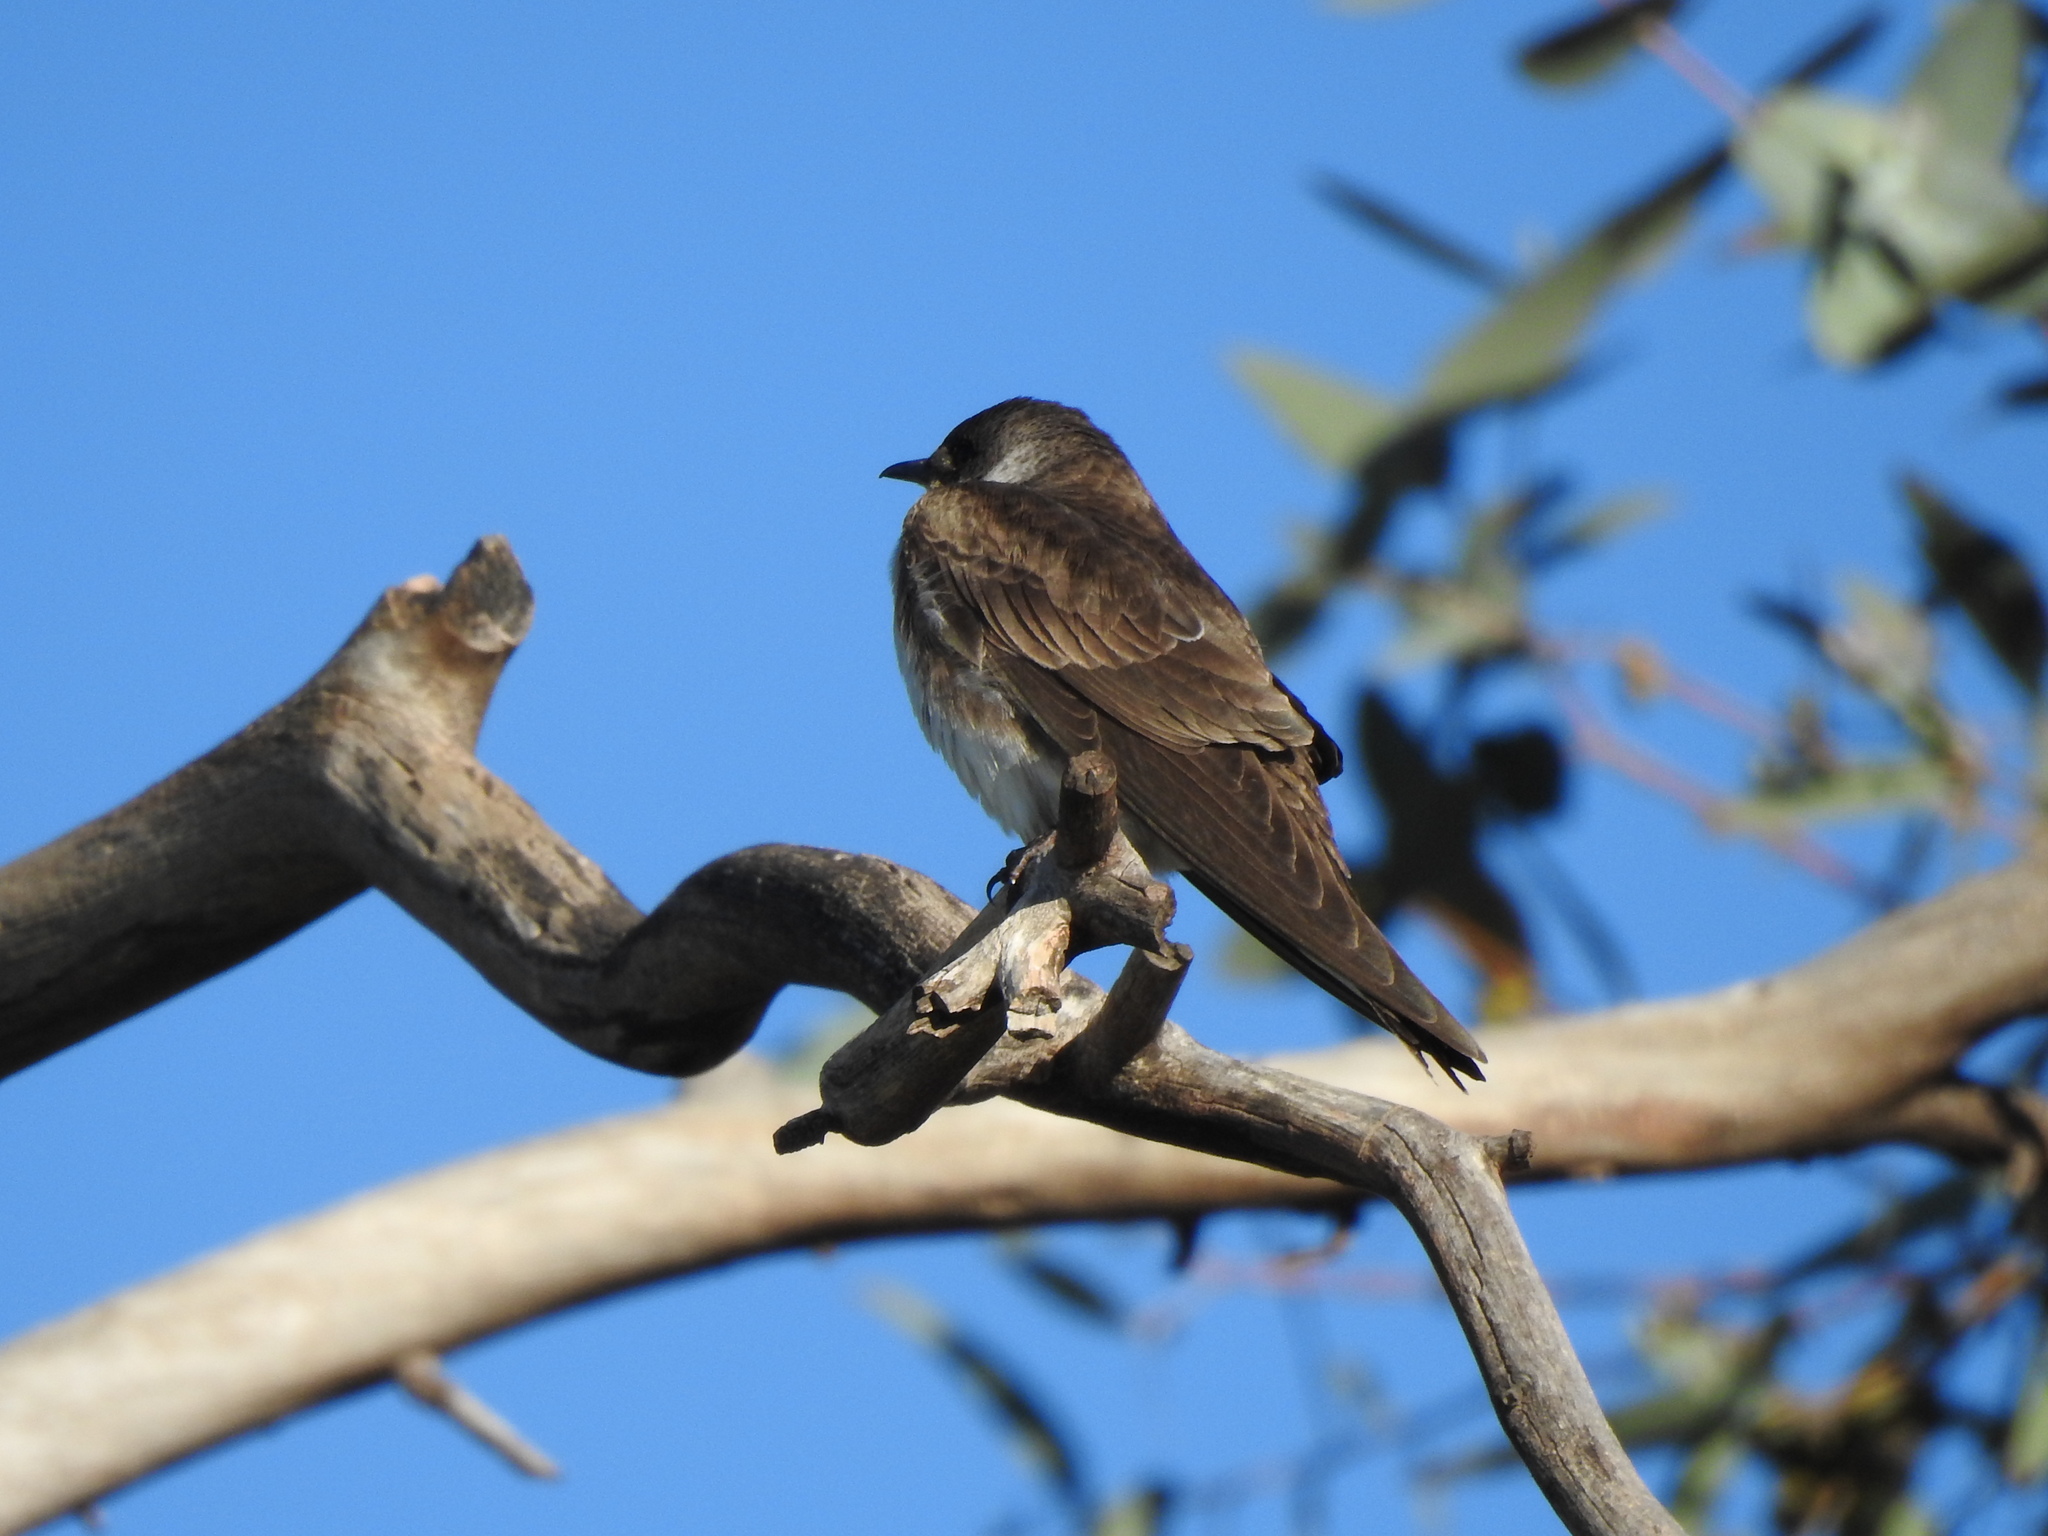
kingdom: Animalia
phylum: Chordata
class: Aves
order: Passeriformes
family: Hirundinidae
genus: Progne
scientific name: Progne tapera
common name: Brown-chested martin
